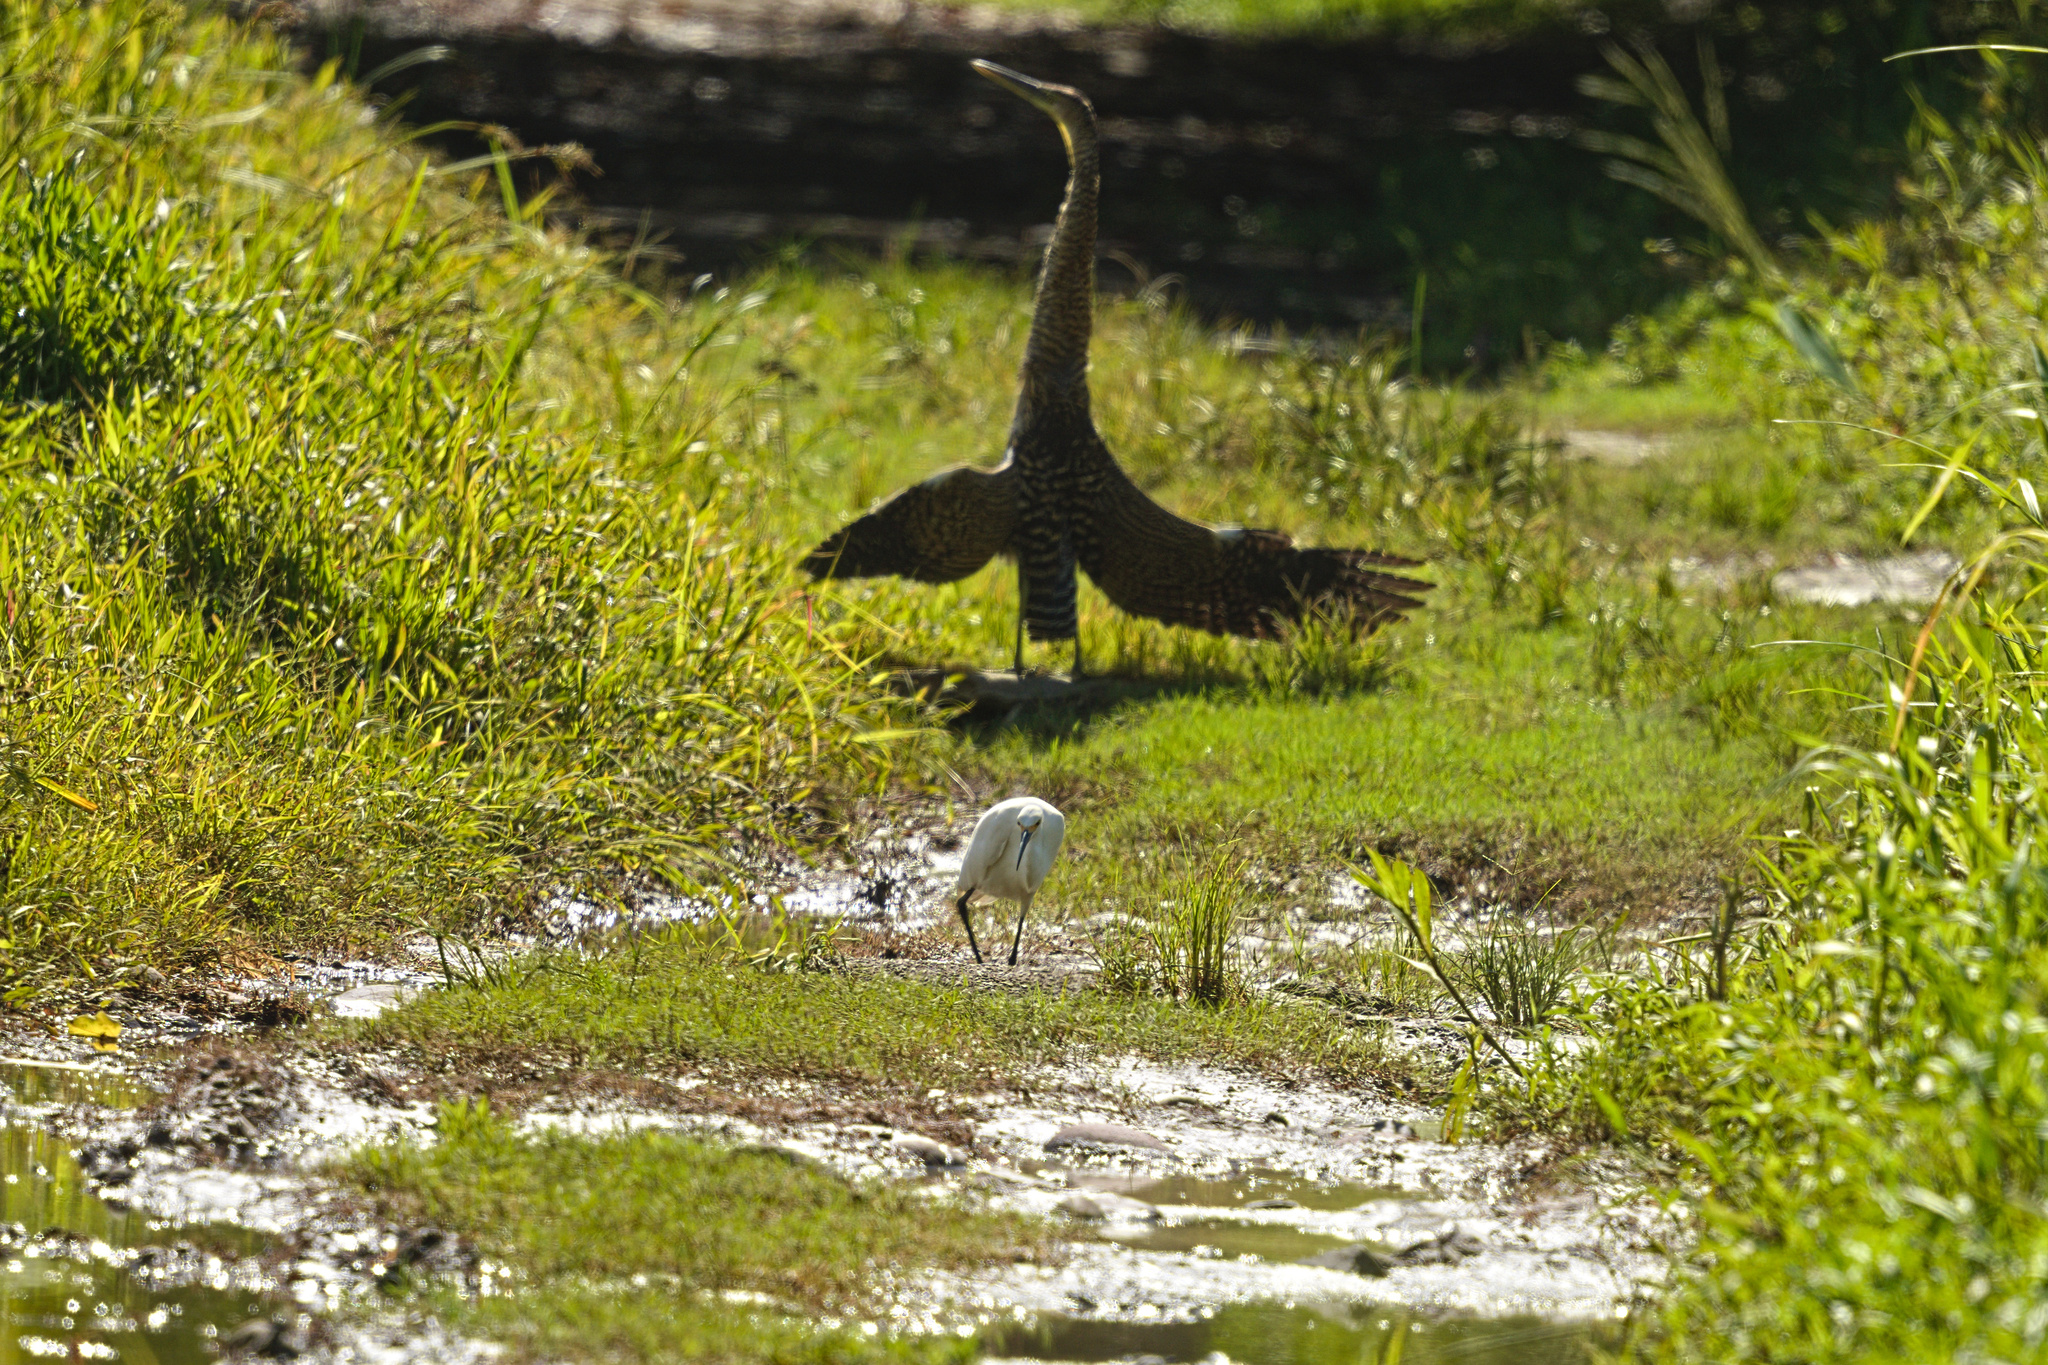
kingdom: Animalia
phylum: Chordata
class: Aves
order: Pelecaniformes
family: Ardeidae
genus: Egretta
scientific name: Egretta thula
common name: Snowy egret
